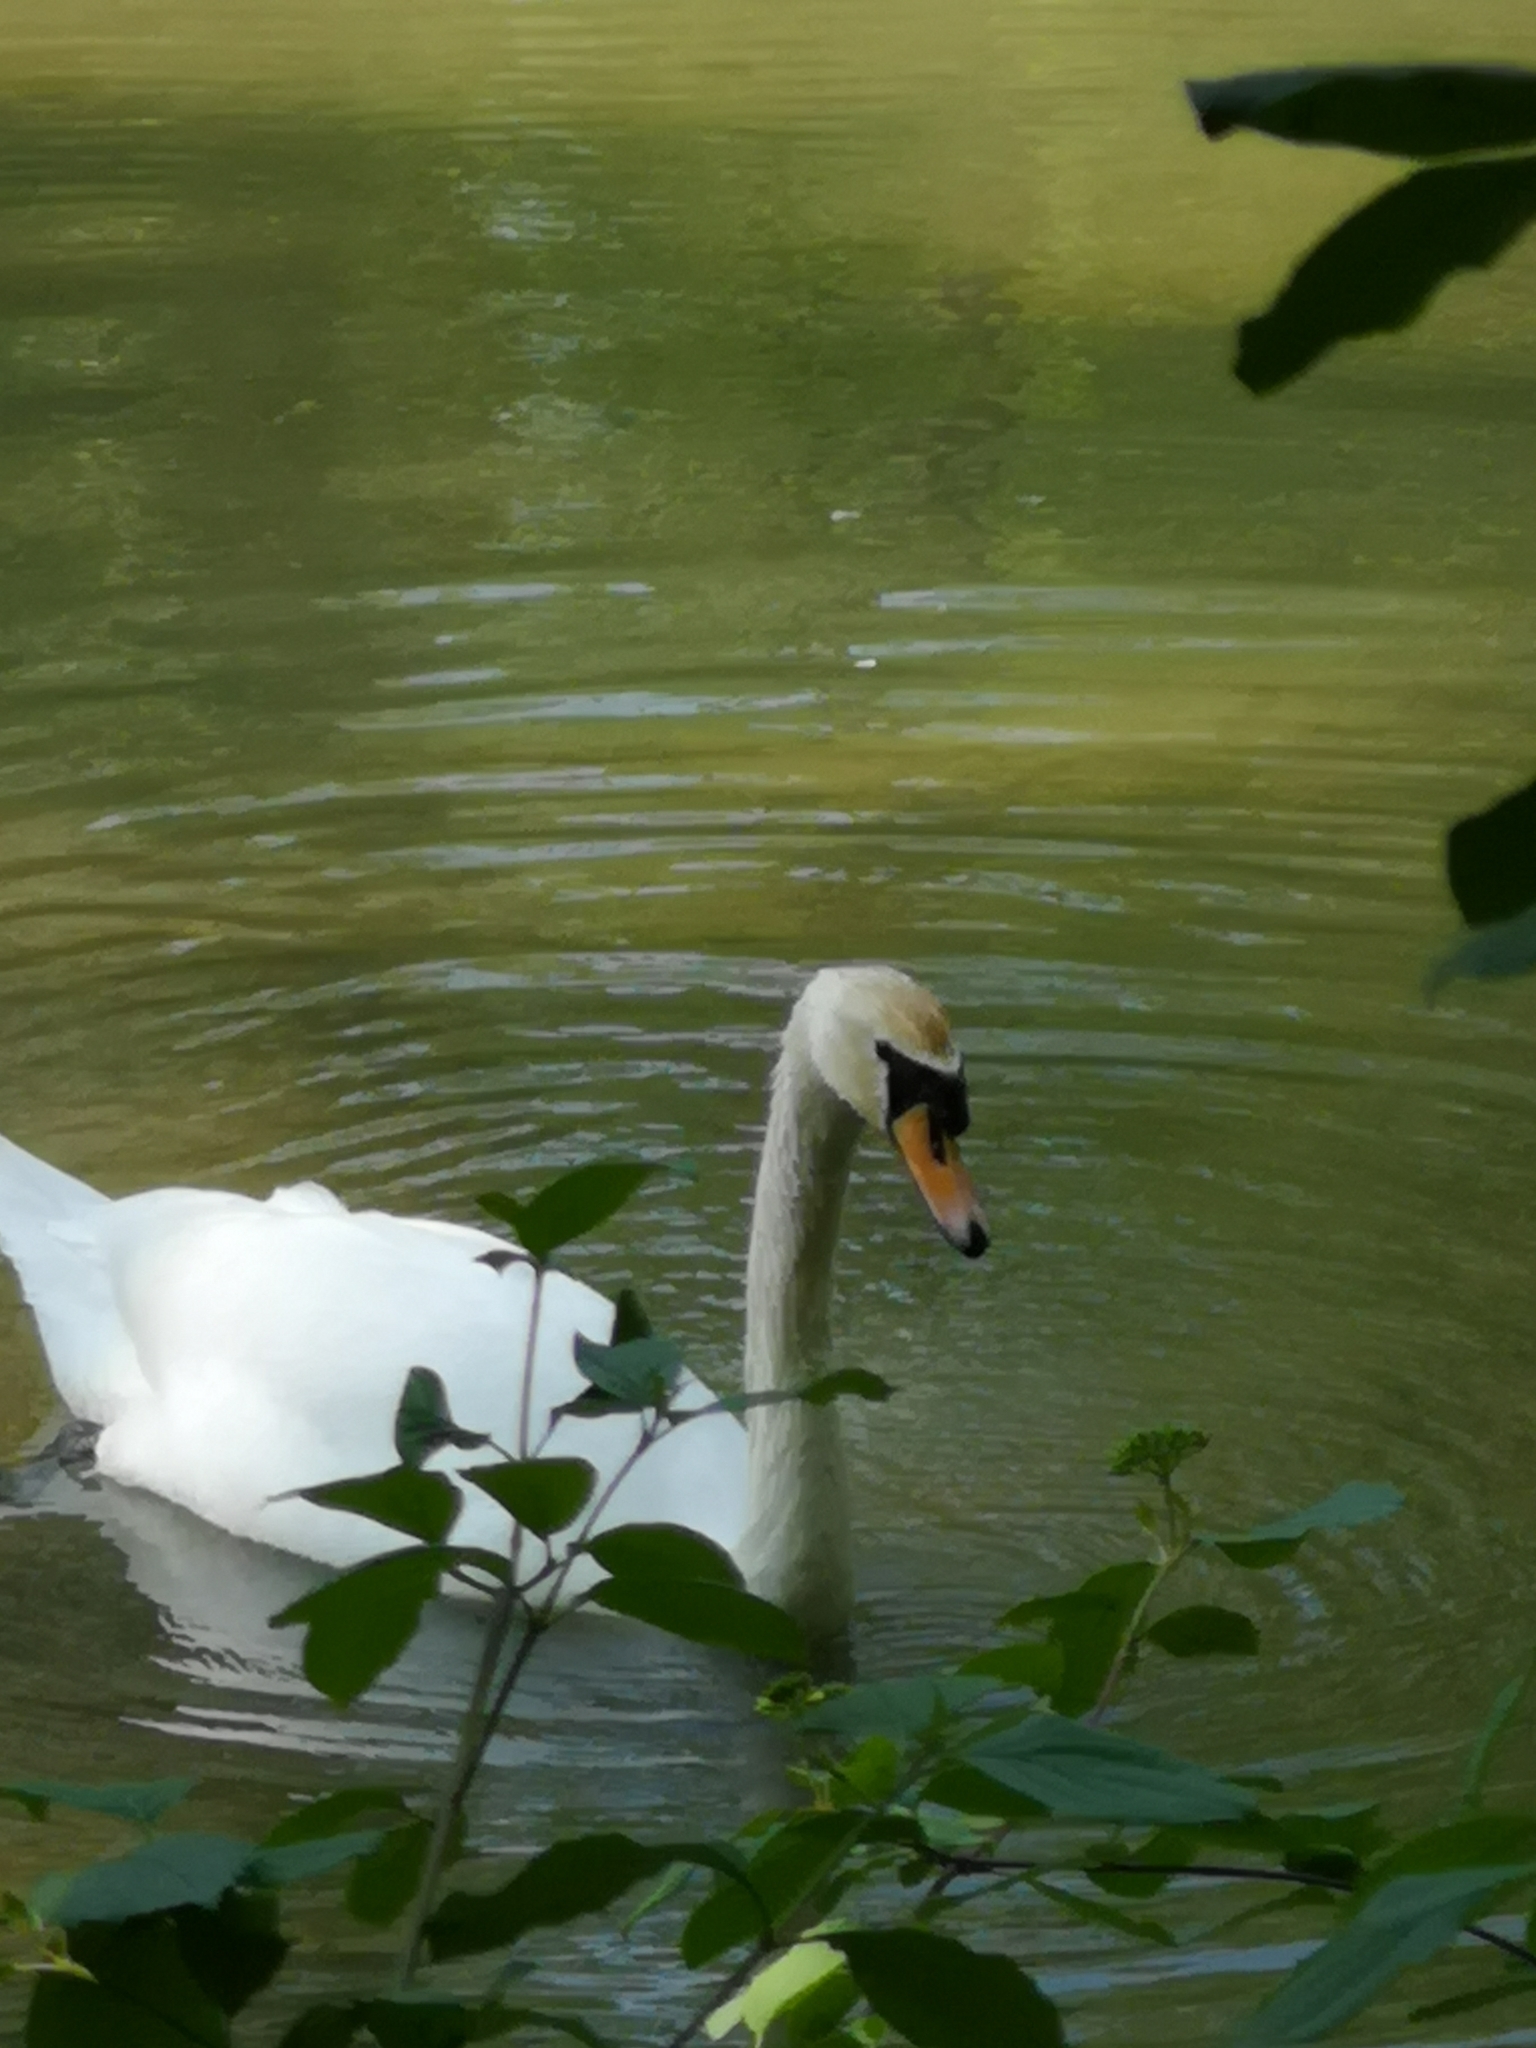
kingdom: Animalia
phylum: Chordata
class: Aves
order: Anseriformes
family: Anatidae
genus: Cygnus
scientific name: Cygnus olor
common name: Mute swan
